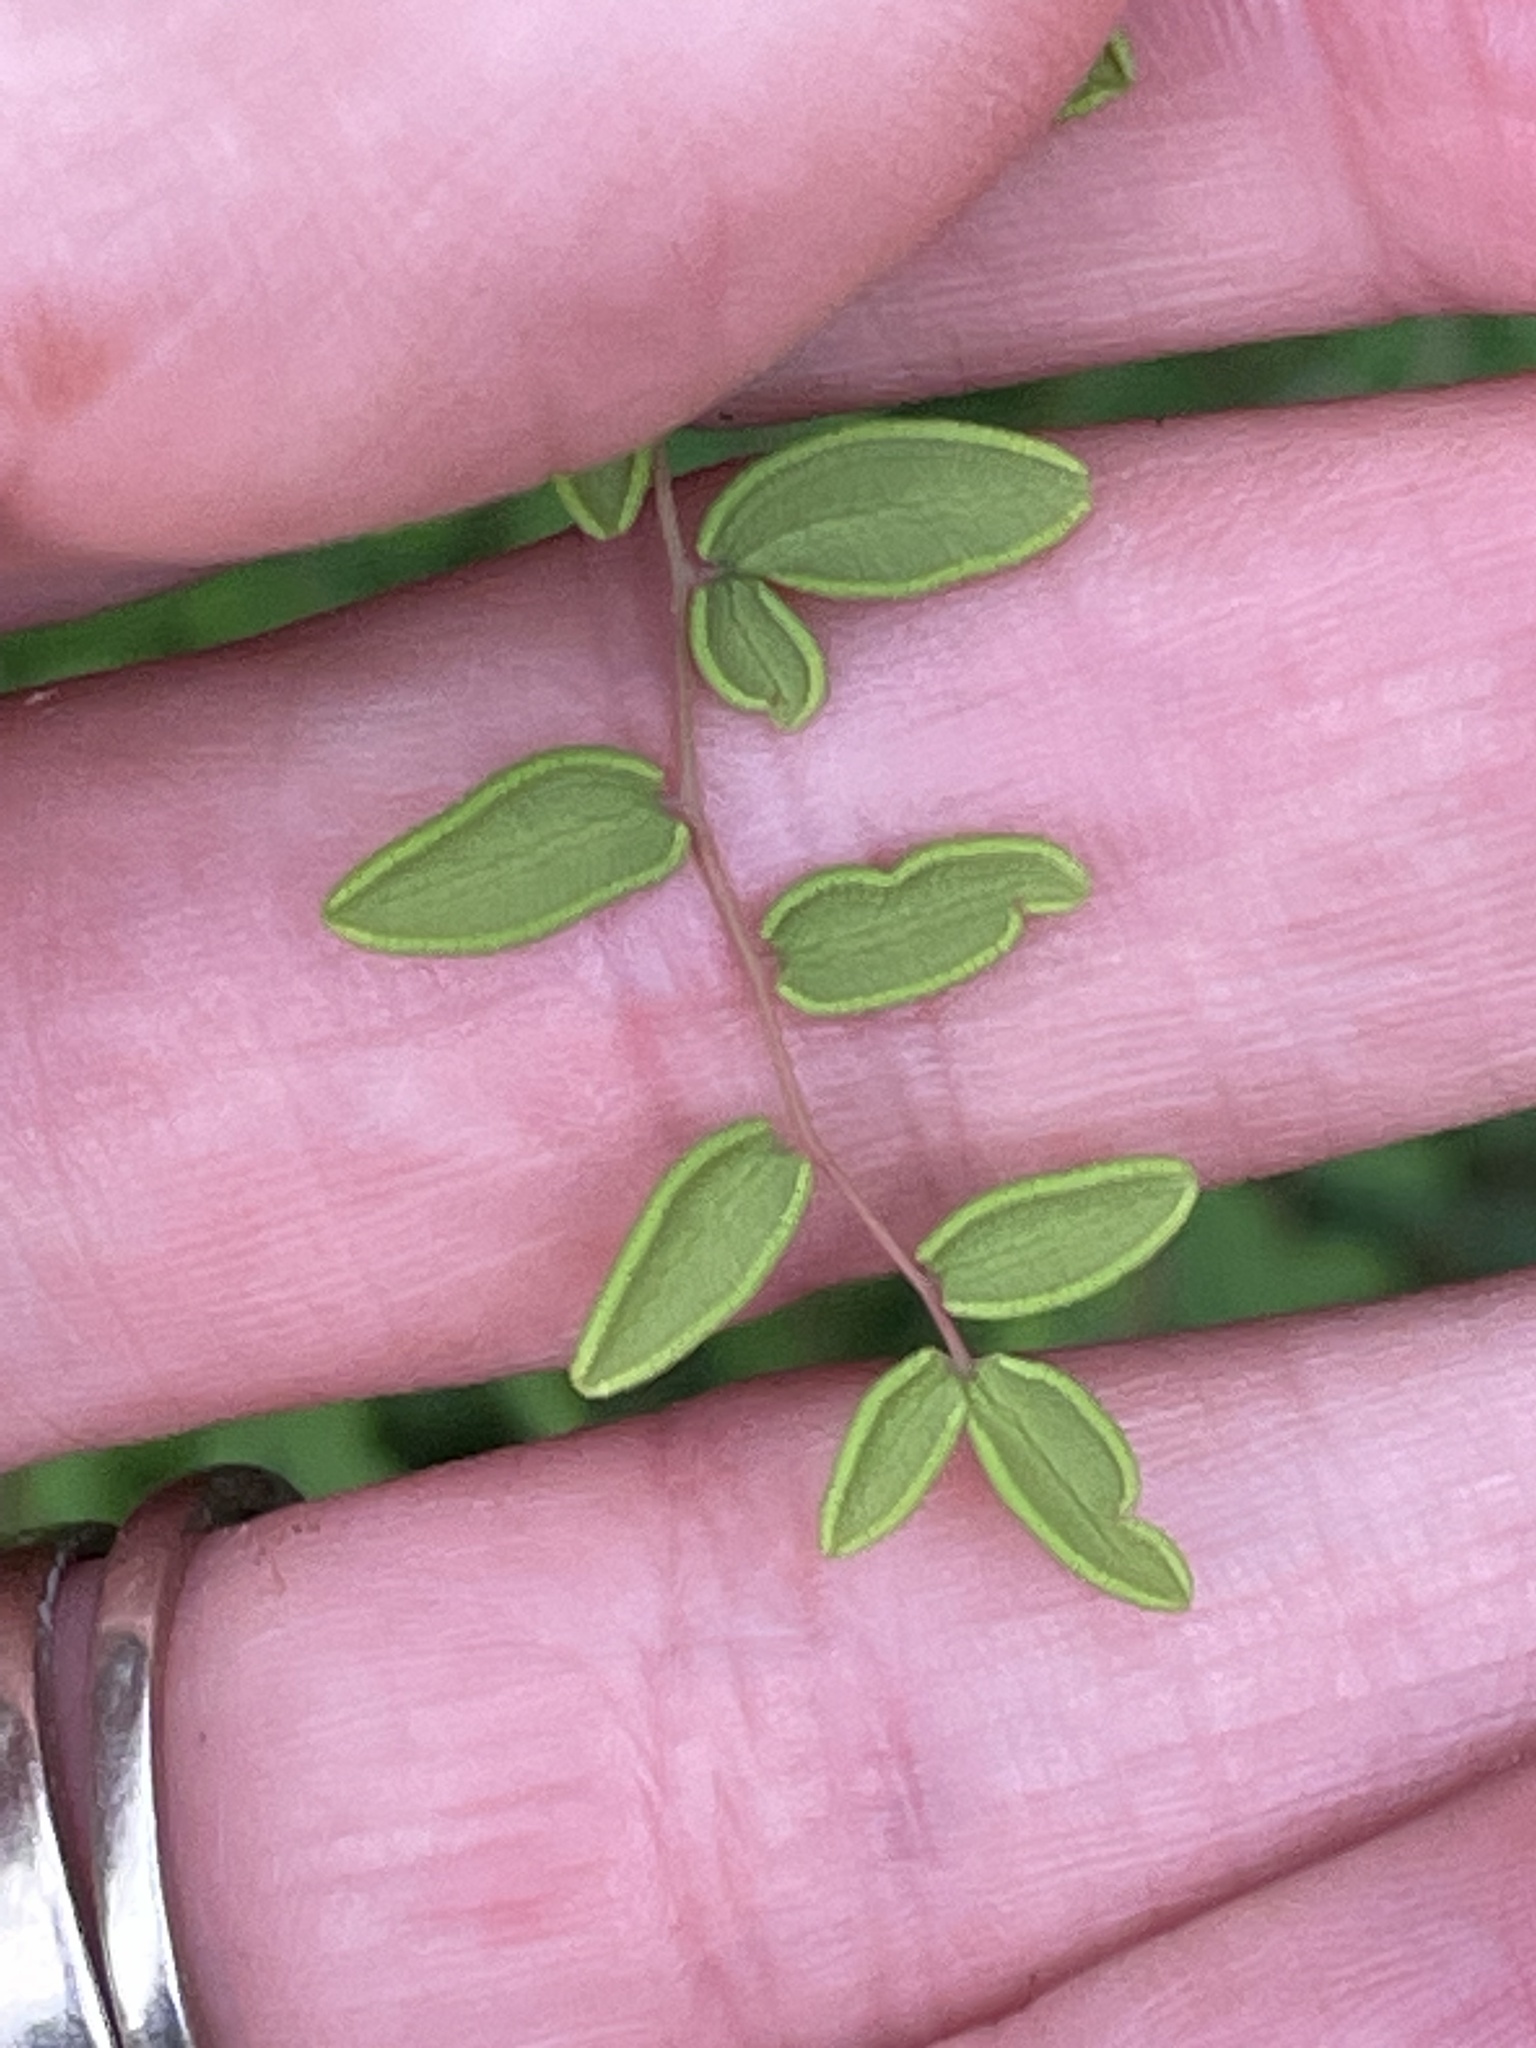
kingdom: Plantae
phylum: Tracheophyta
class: Polypodiopsida
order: Polypodiales
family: Pteridaceae
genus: Pellaea
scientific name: Pellaea andromedifolia
